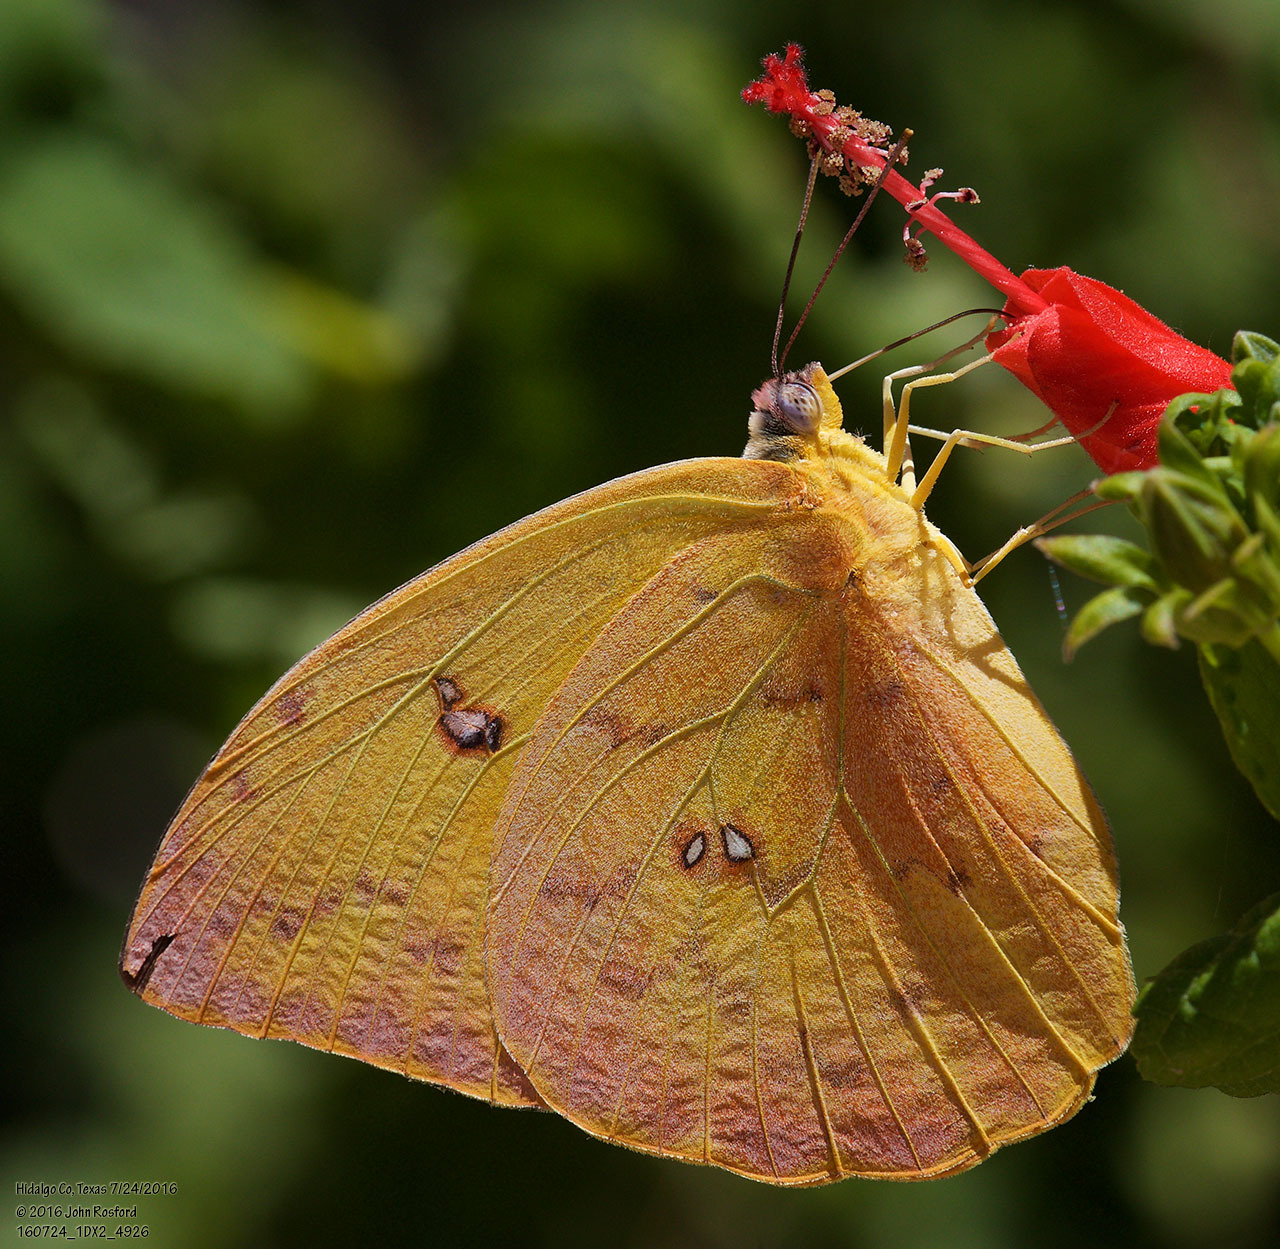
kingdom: Animalia
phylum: Arthropoda
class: Insecta
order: Lepidoptera
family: Pieridae
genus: Phoebis
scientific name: Phoebis philea
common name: Orange-barred giant sulphur
